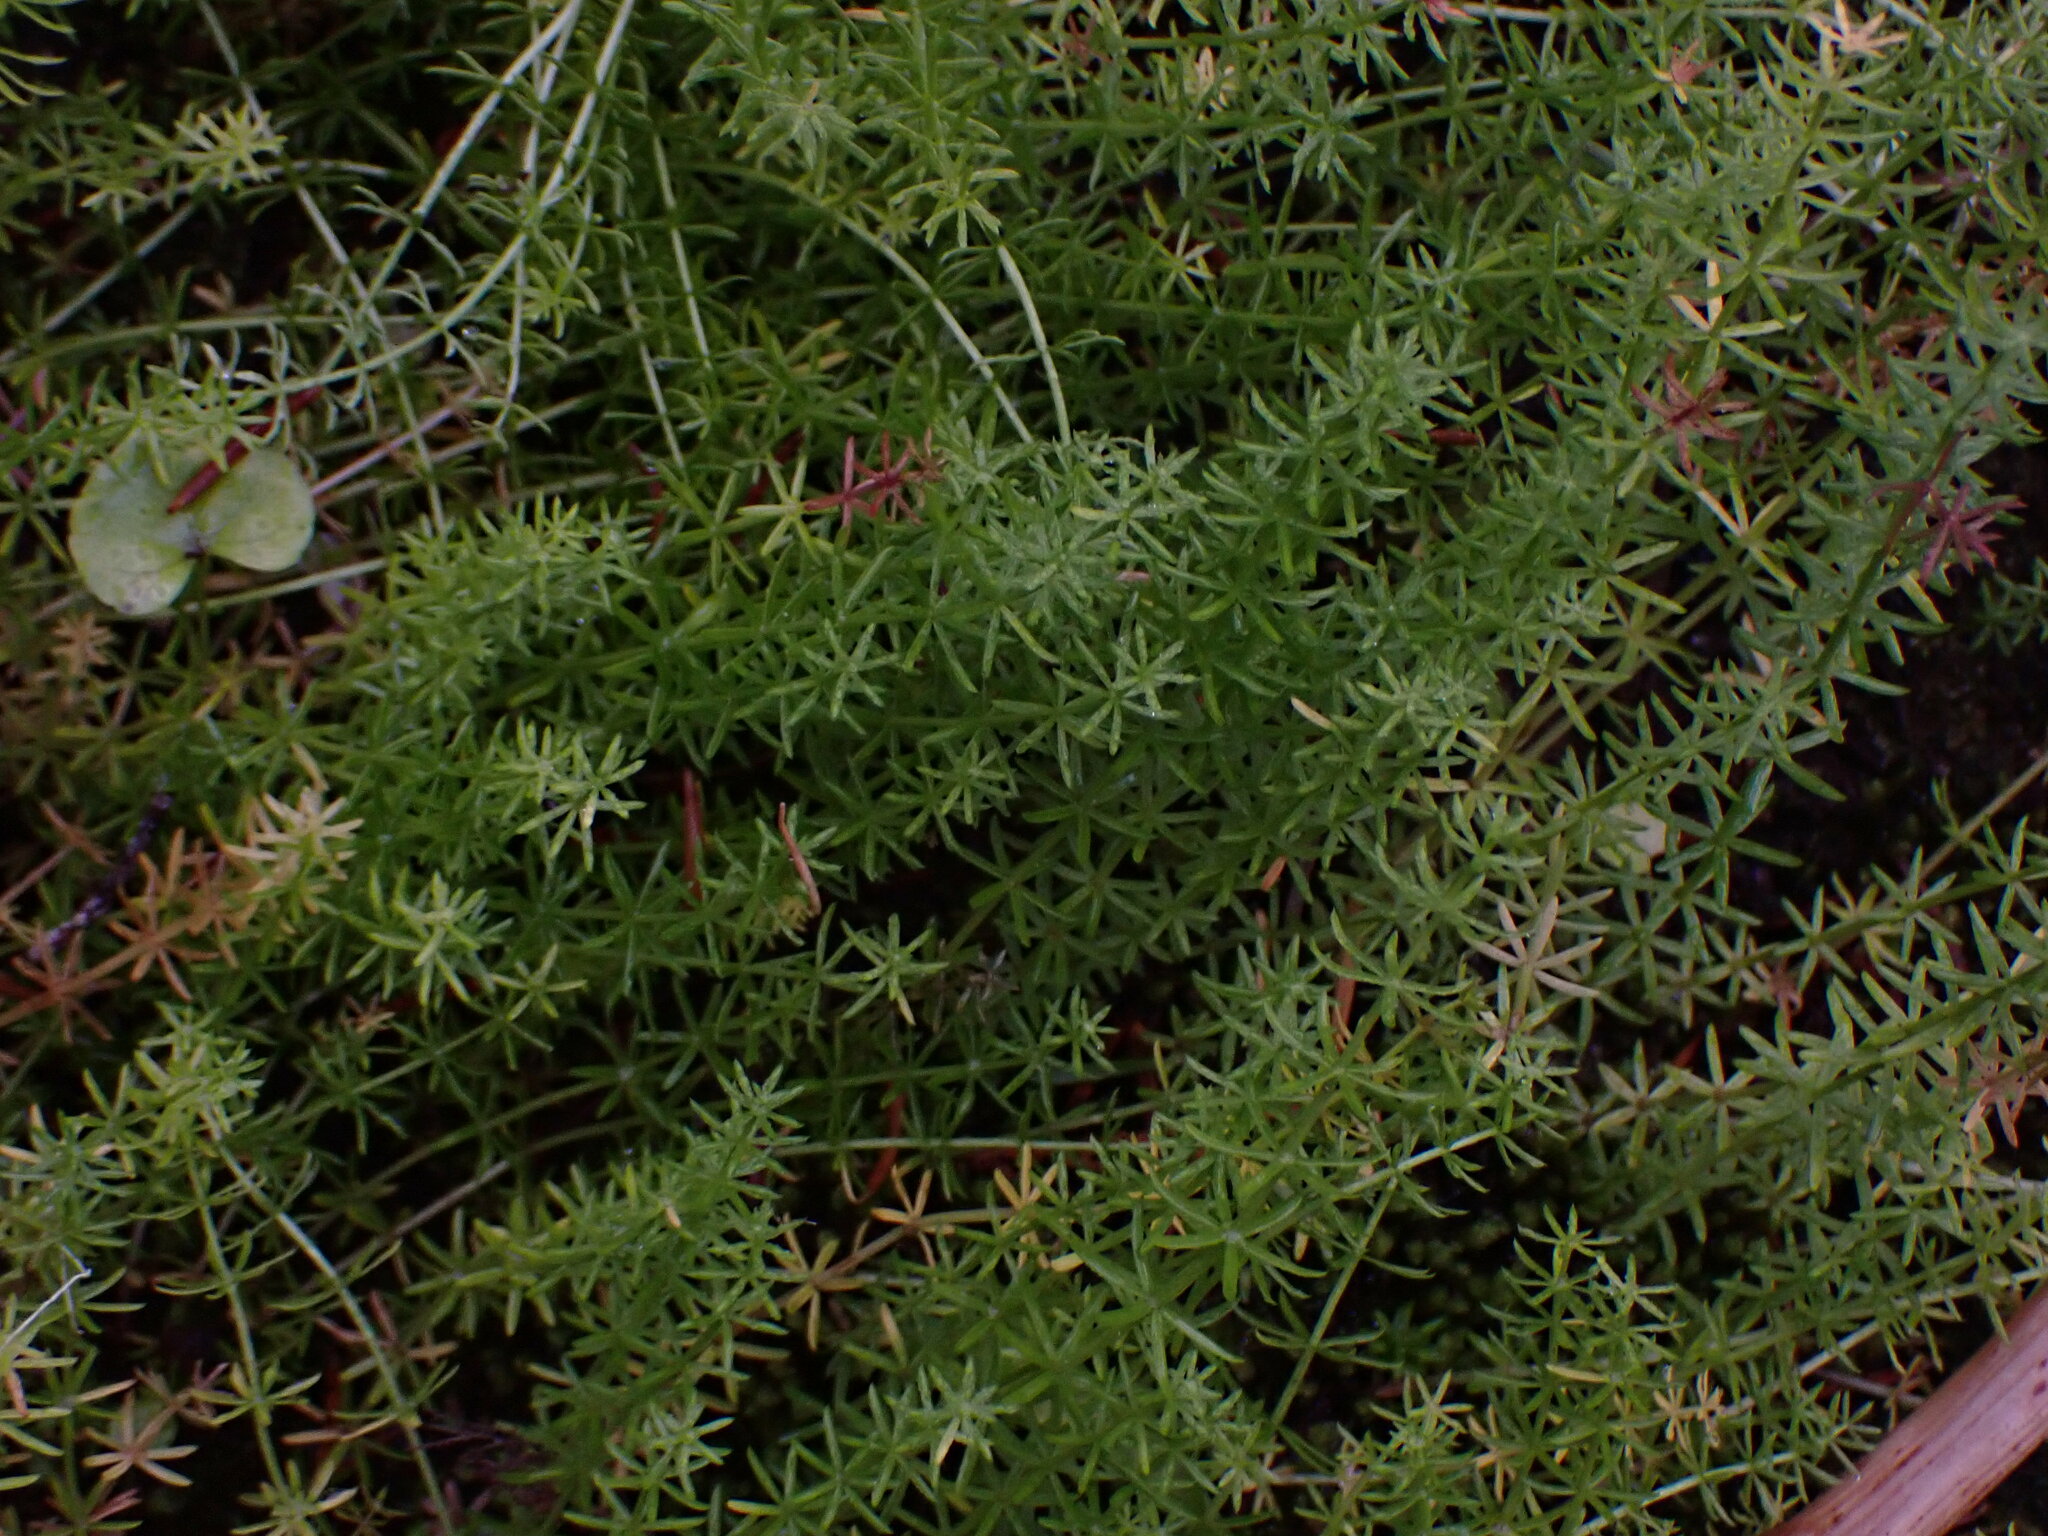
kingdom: Plantae
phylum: Tracheophyta
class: Magnoliopsida
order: Lamiales
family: Plantaginaceae
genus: Hippuris
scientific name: Hippuris montana
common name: Mountain mare's-tail
